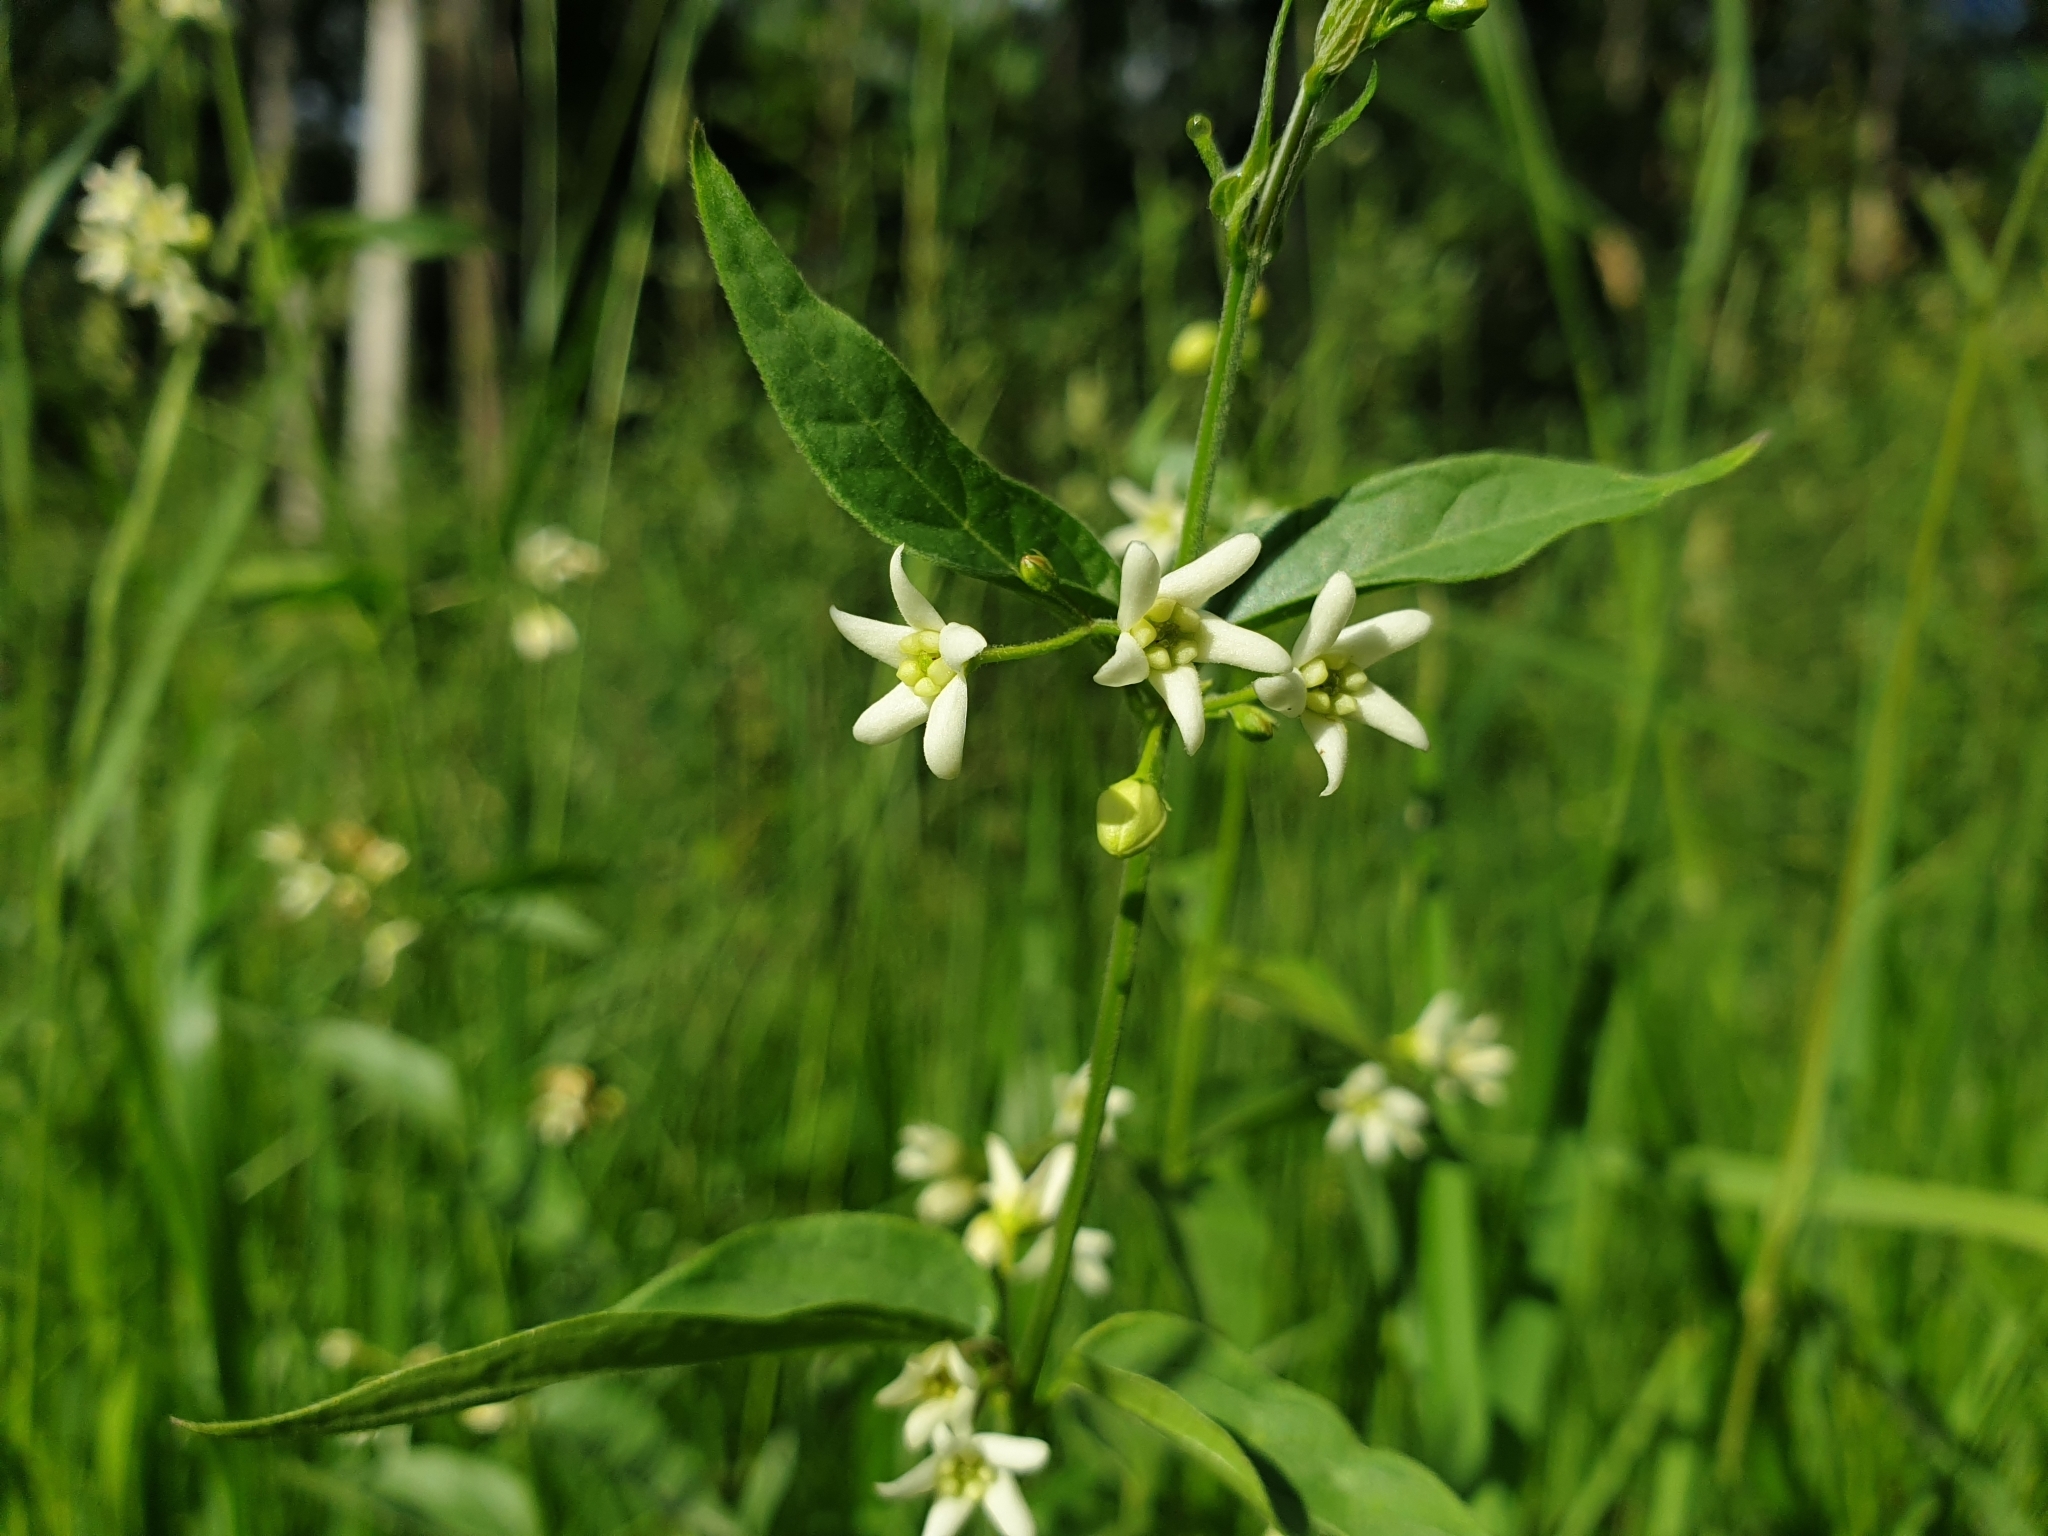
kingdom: Plantae
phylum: Tracheophyta
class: Magnoliopsida
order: Gentianales
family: Apocynaceae
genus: Vincetoxicum
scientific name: Vincetoxicum hirundinaria
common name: White swallowwort
